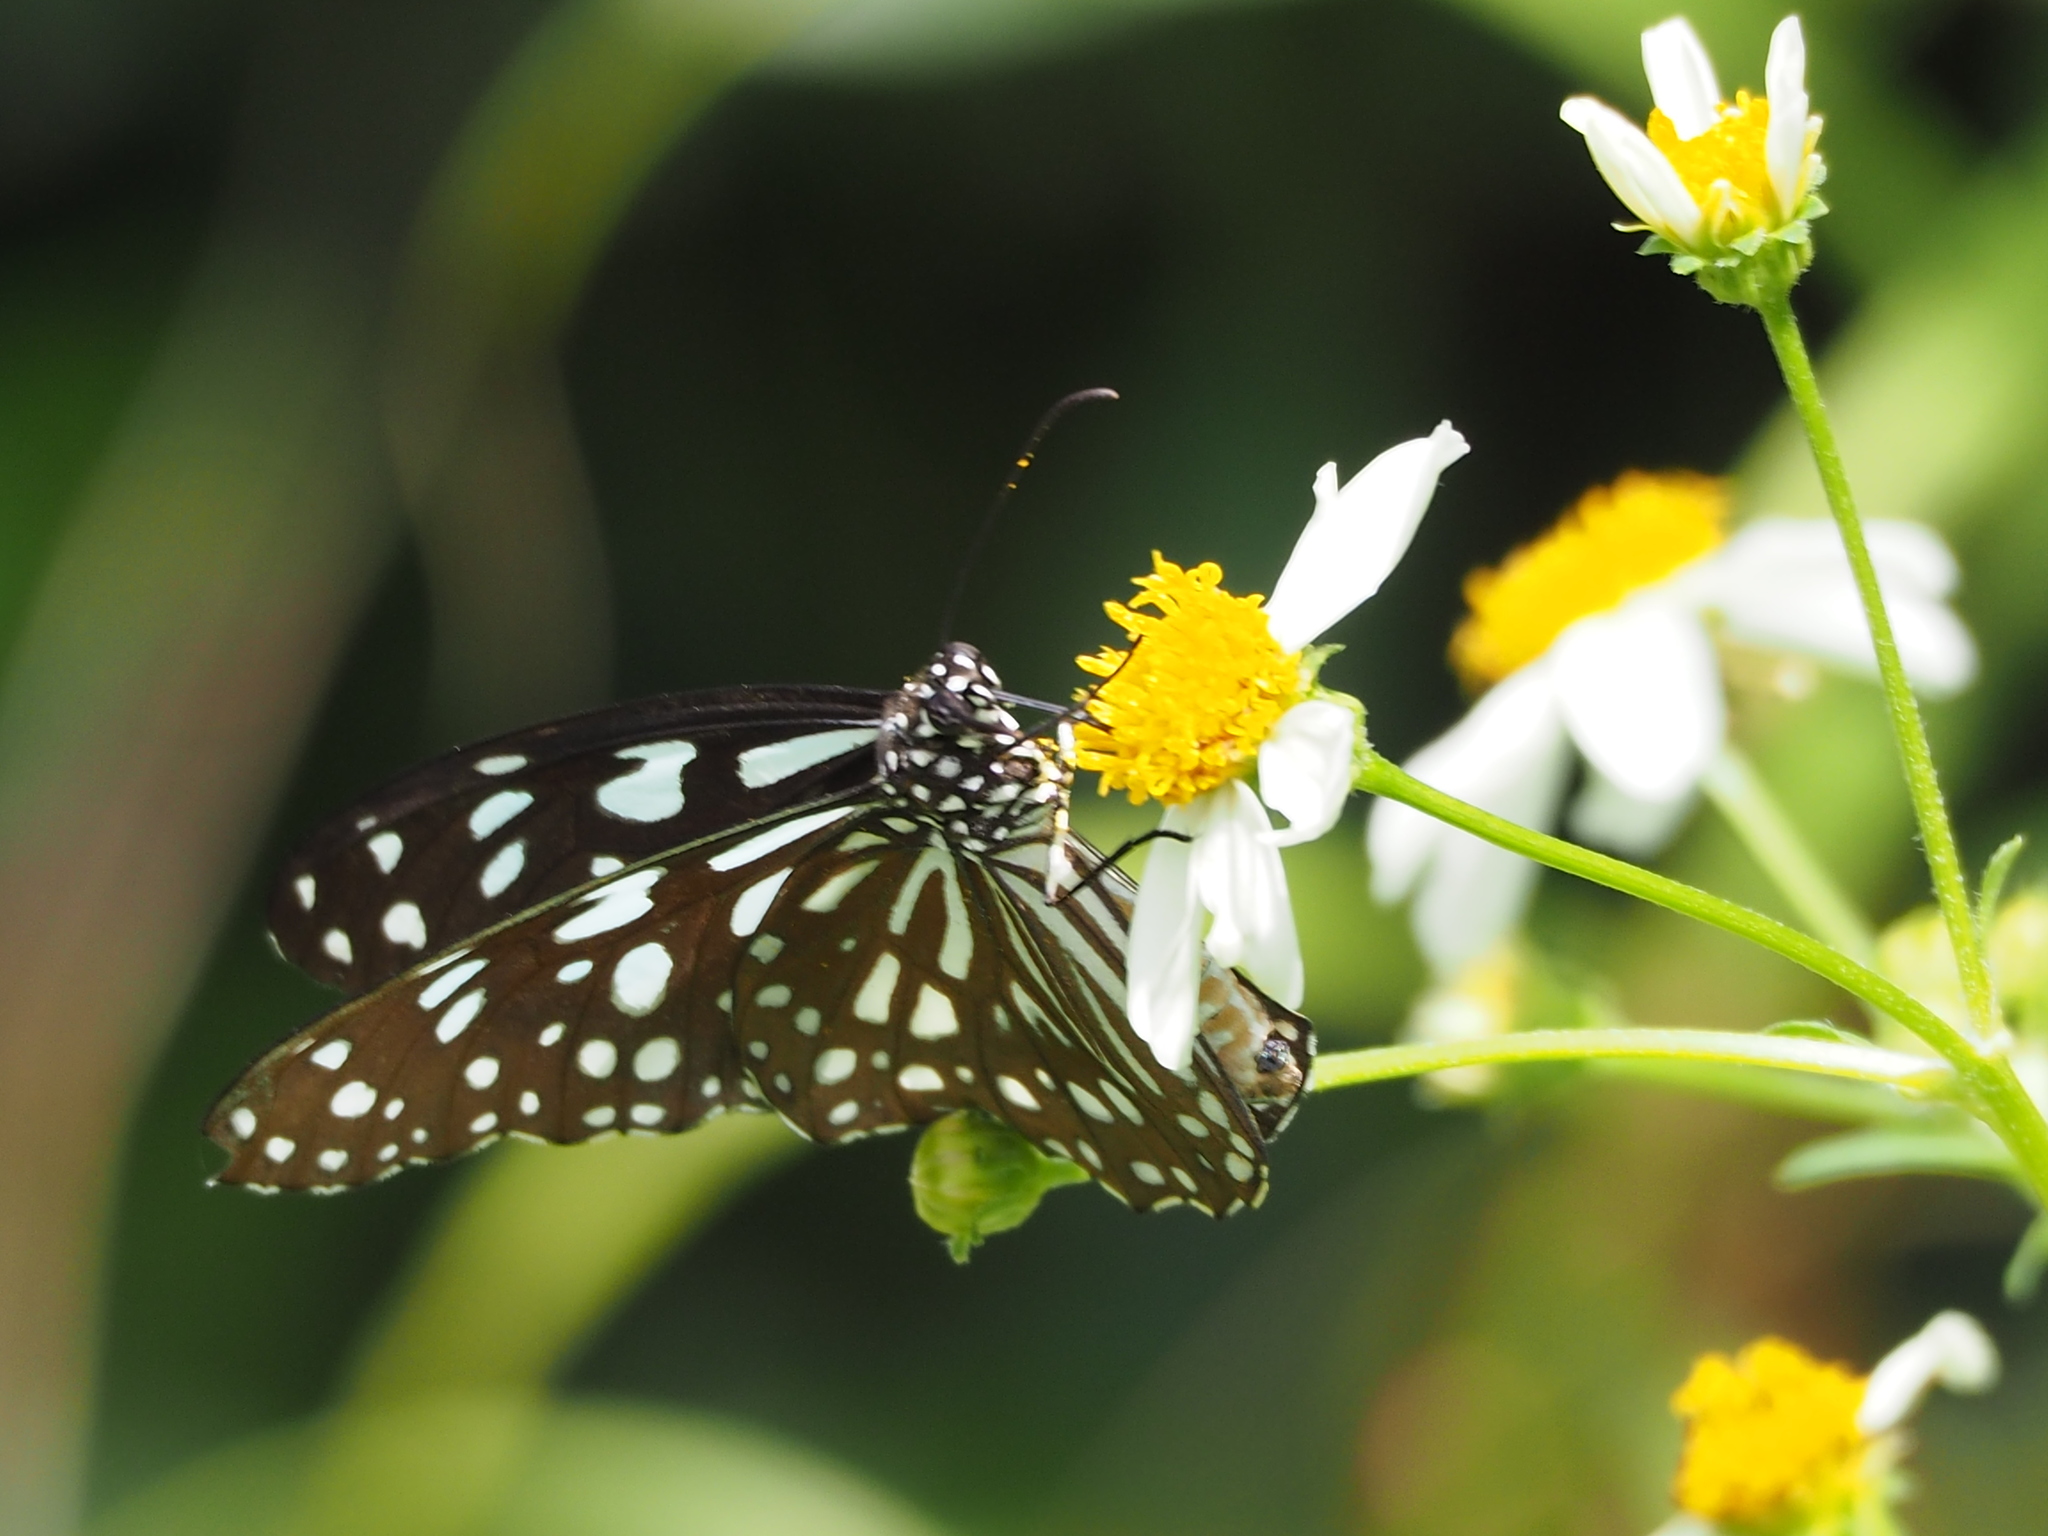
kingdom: Animalia
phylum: Arthropoda
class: Insecta
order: Lepidoptera
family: Nymphalidae
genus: Tirumala
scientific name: Tirumala limniace
